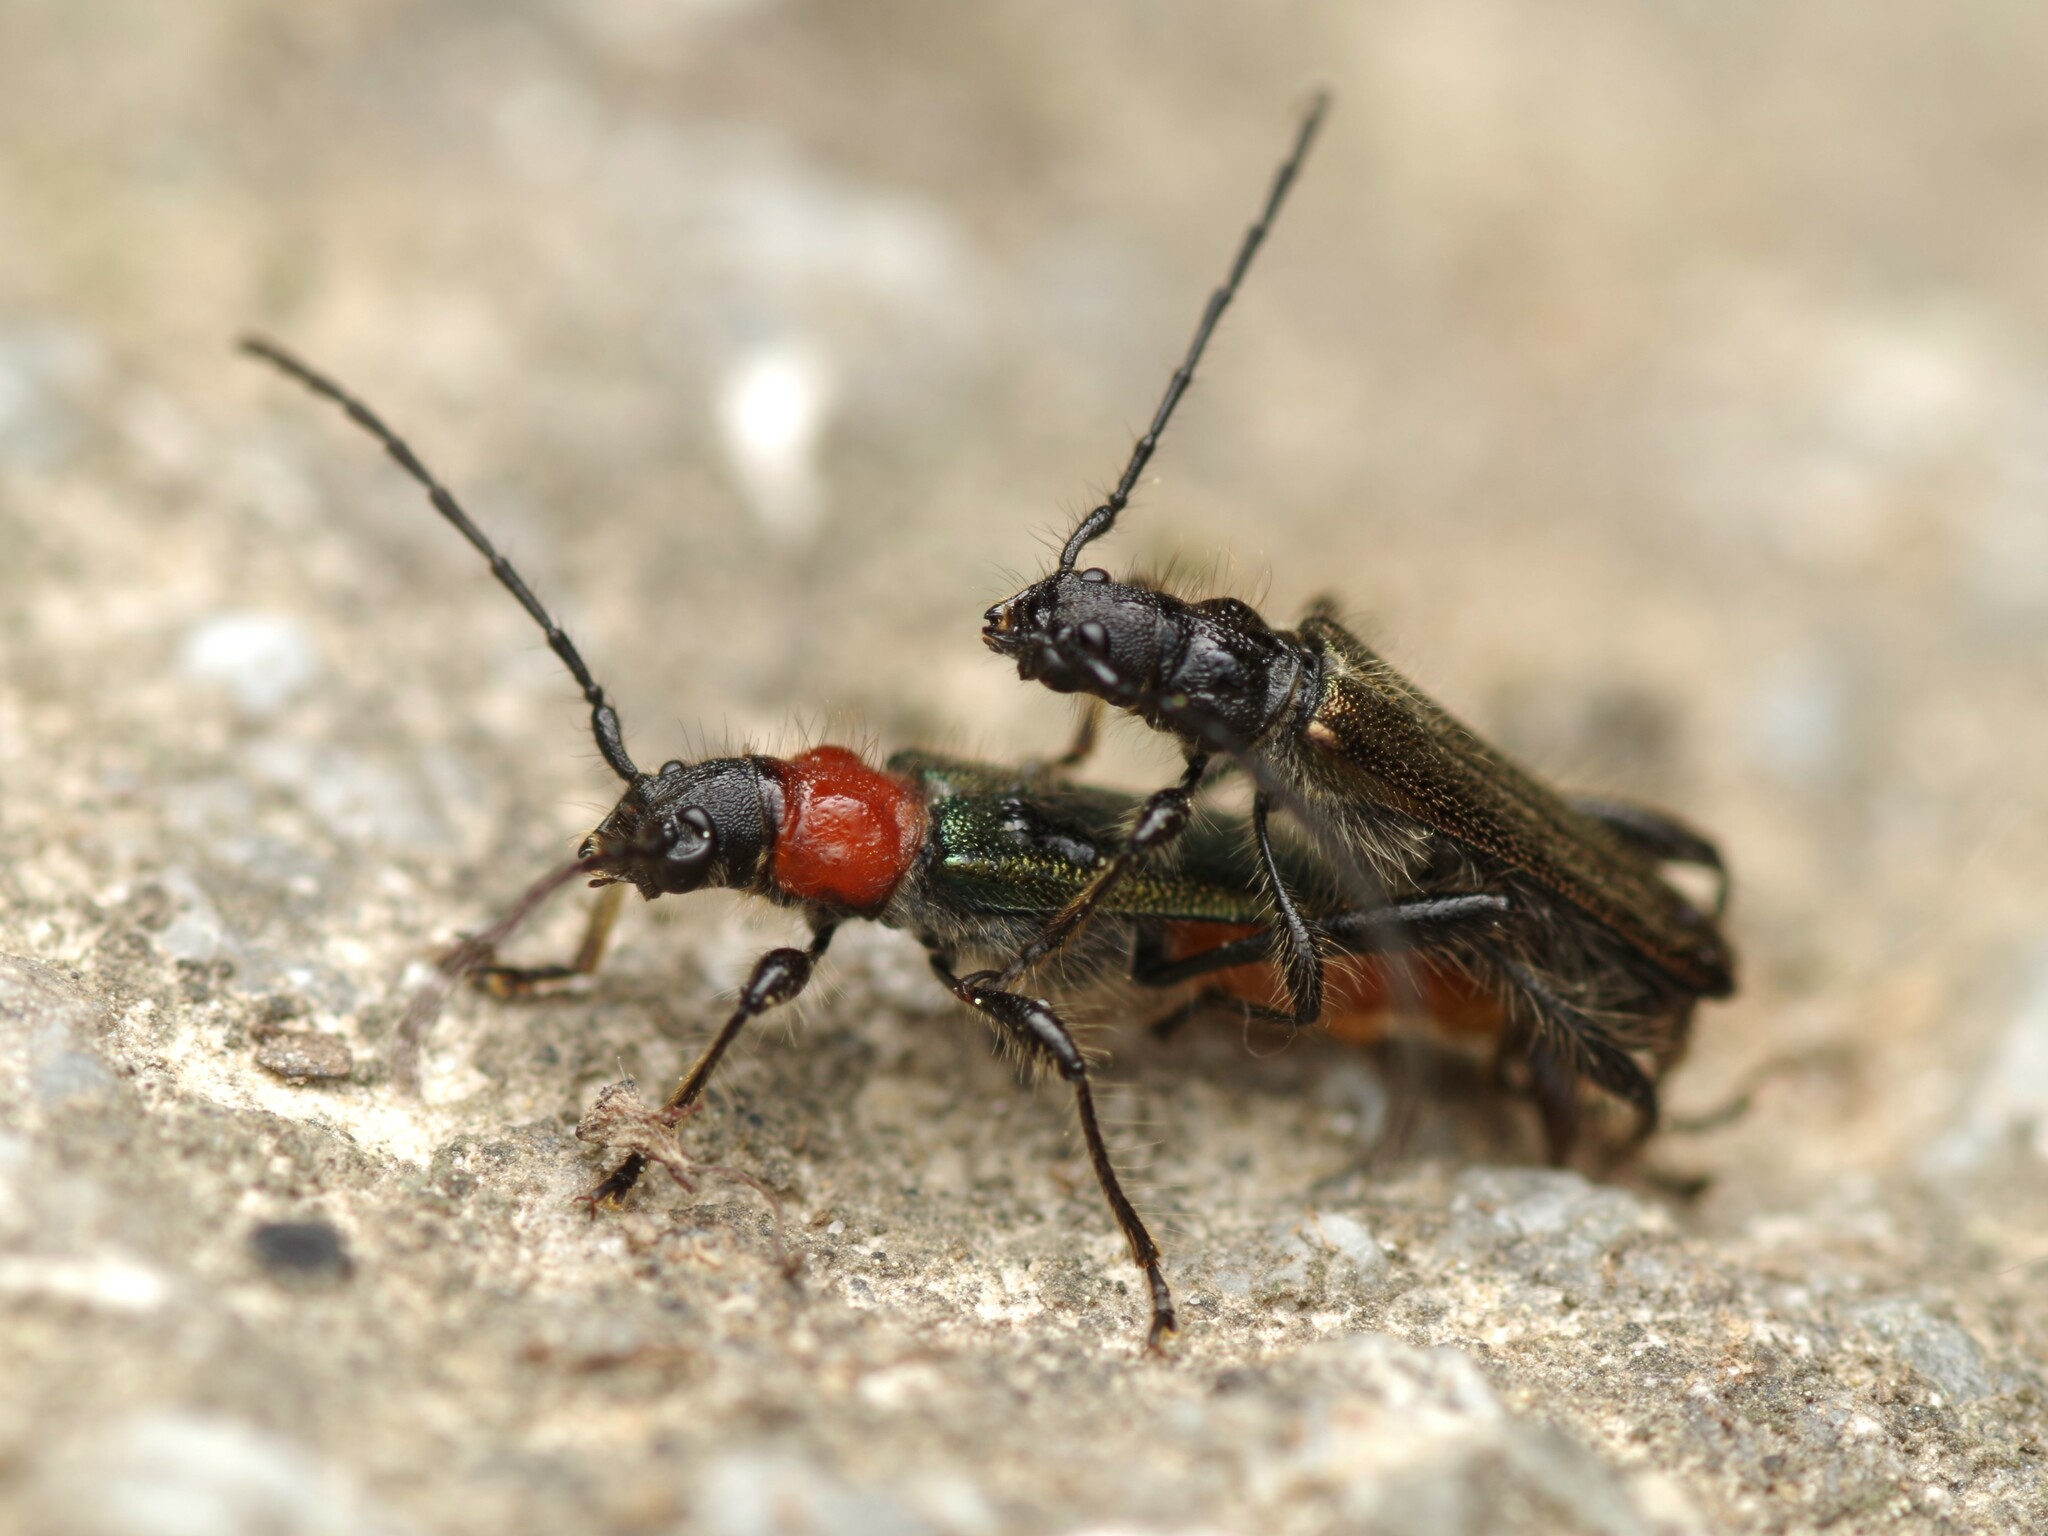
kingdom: Animalia
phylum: Arthropoda
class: Insecta
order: Coleoptera
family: Cerambycidae
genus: Callimus
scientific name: Callimus abdominale
